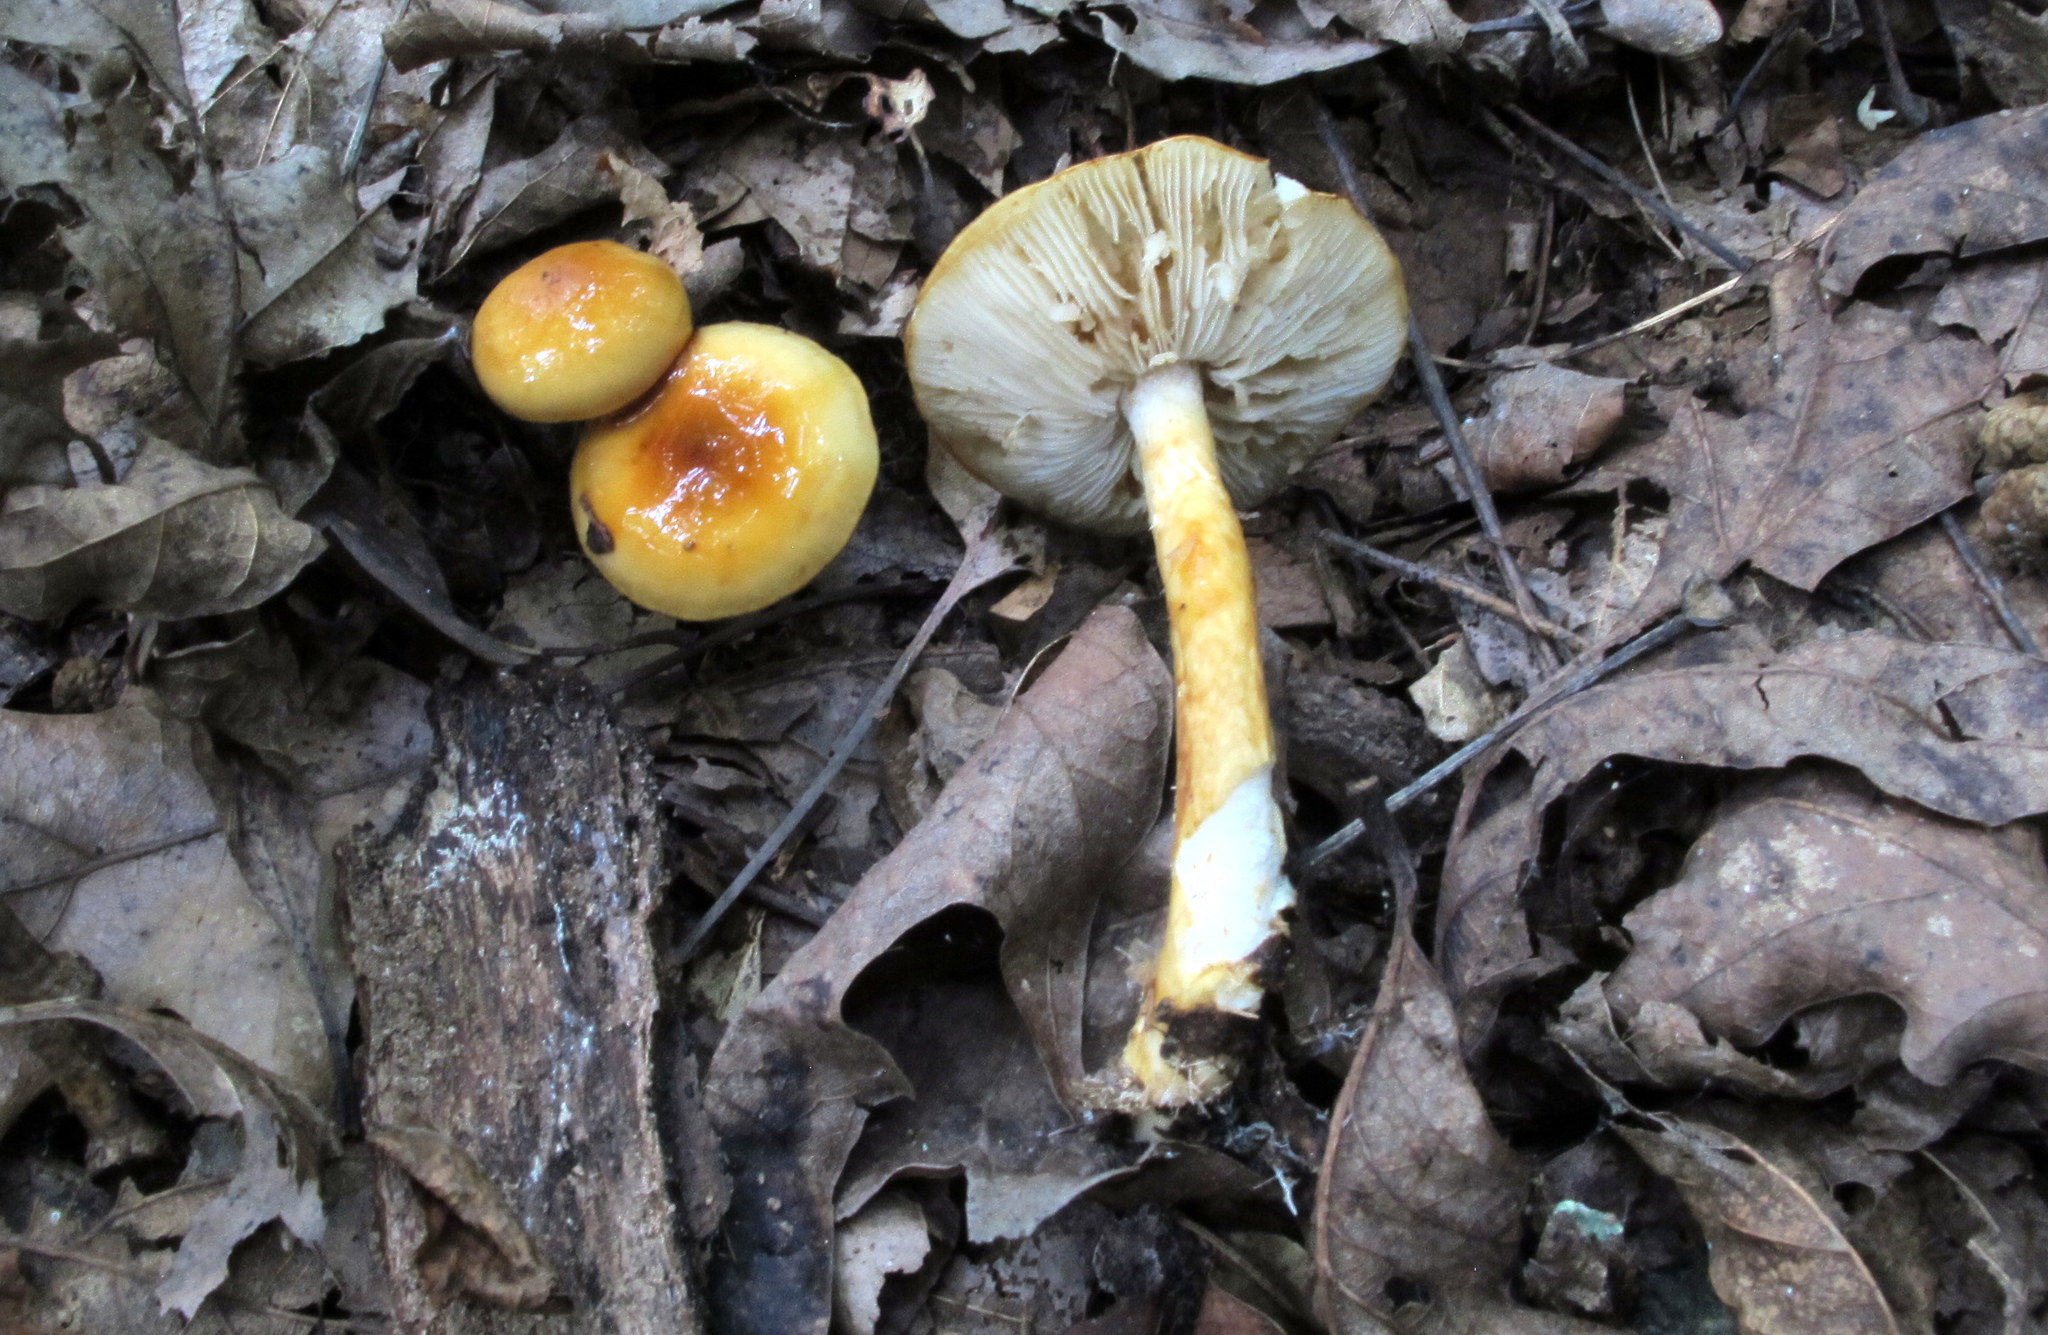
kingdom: Fungi
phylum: Basidiomycota
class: Agaricomycetes
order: Agaricales
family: Amanitaceae
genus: Limacella
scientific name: Limacella glischra
